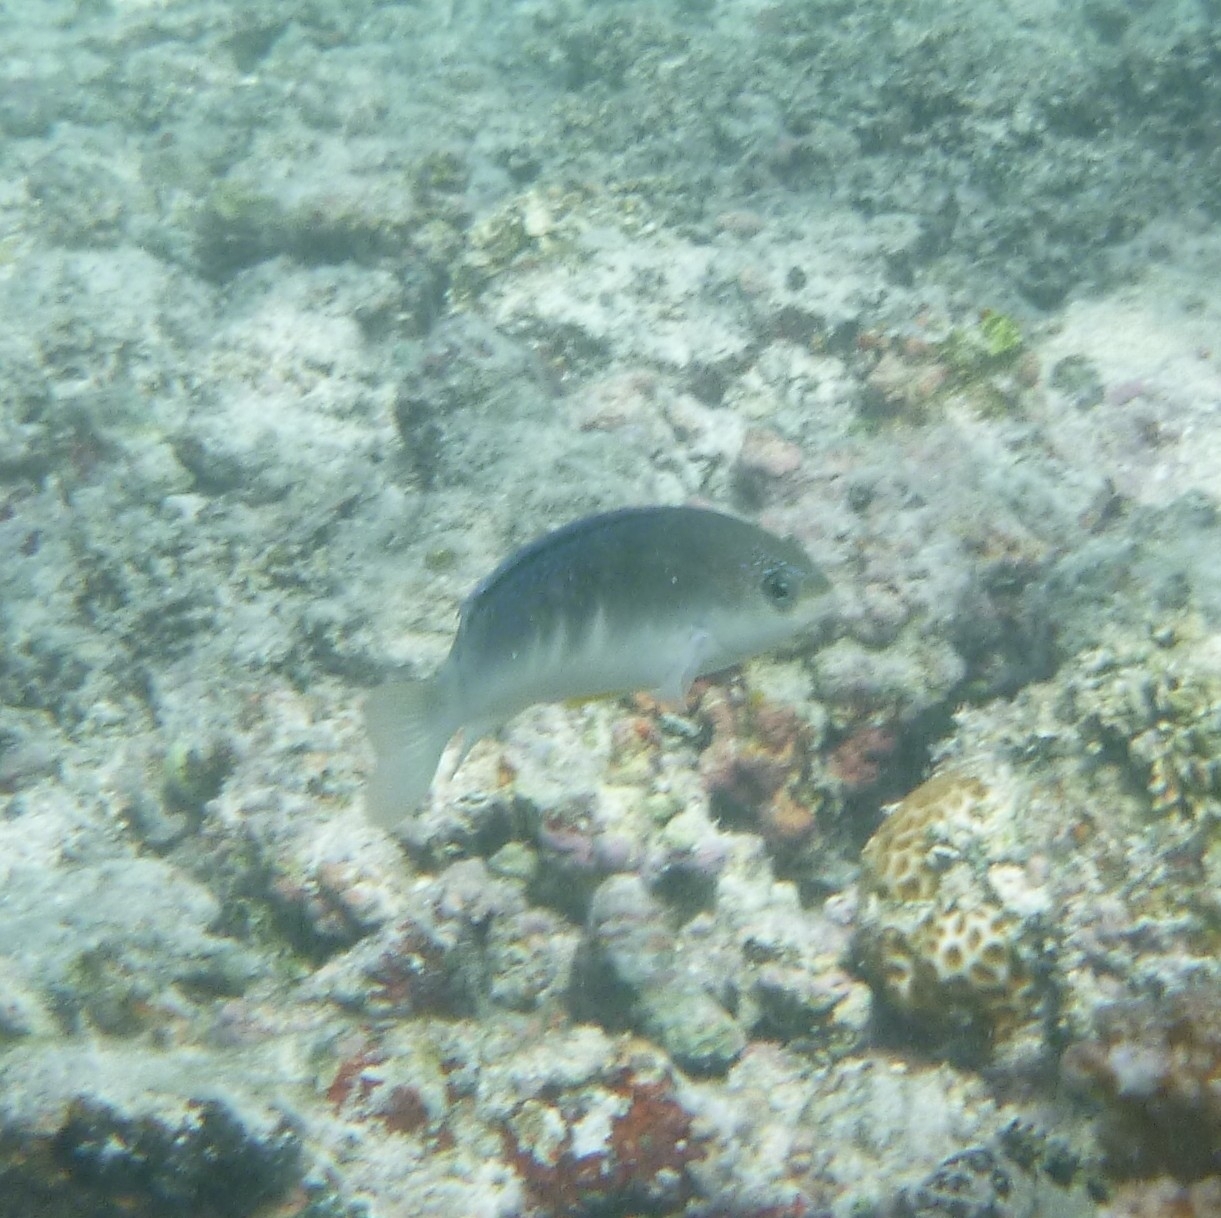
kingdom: Animalia
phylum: Chordata
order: Perciformes
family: Pomacentridae
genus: Chrysiptera
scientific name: Chrysiptera glauca
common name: Grey demoiselle
